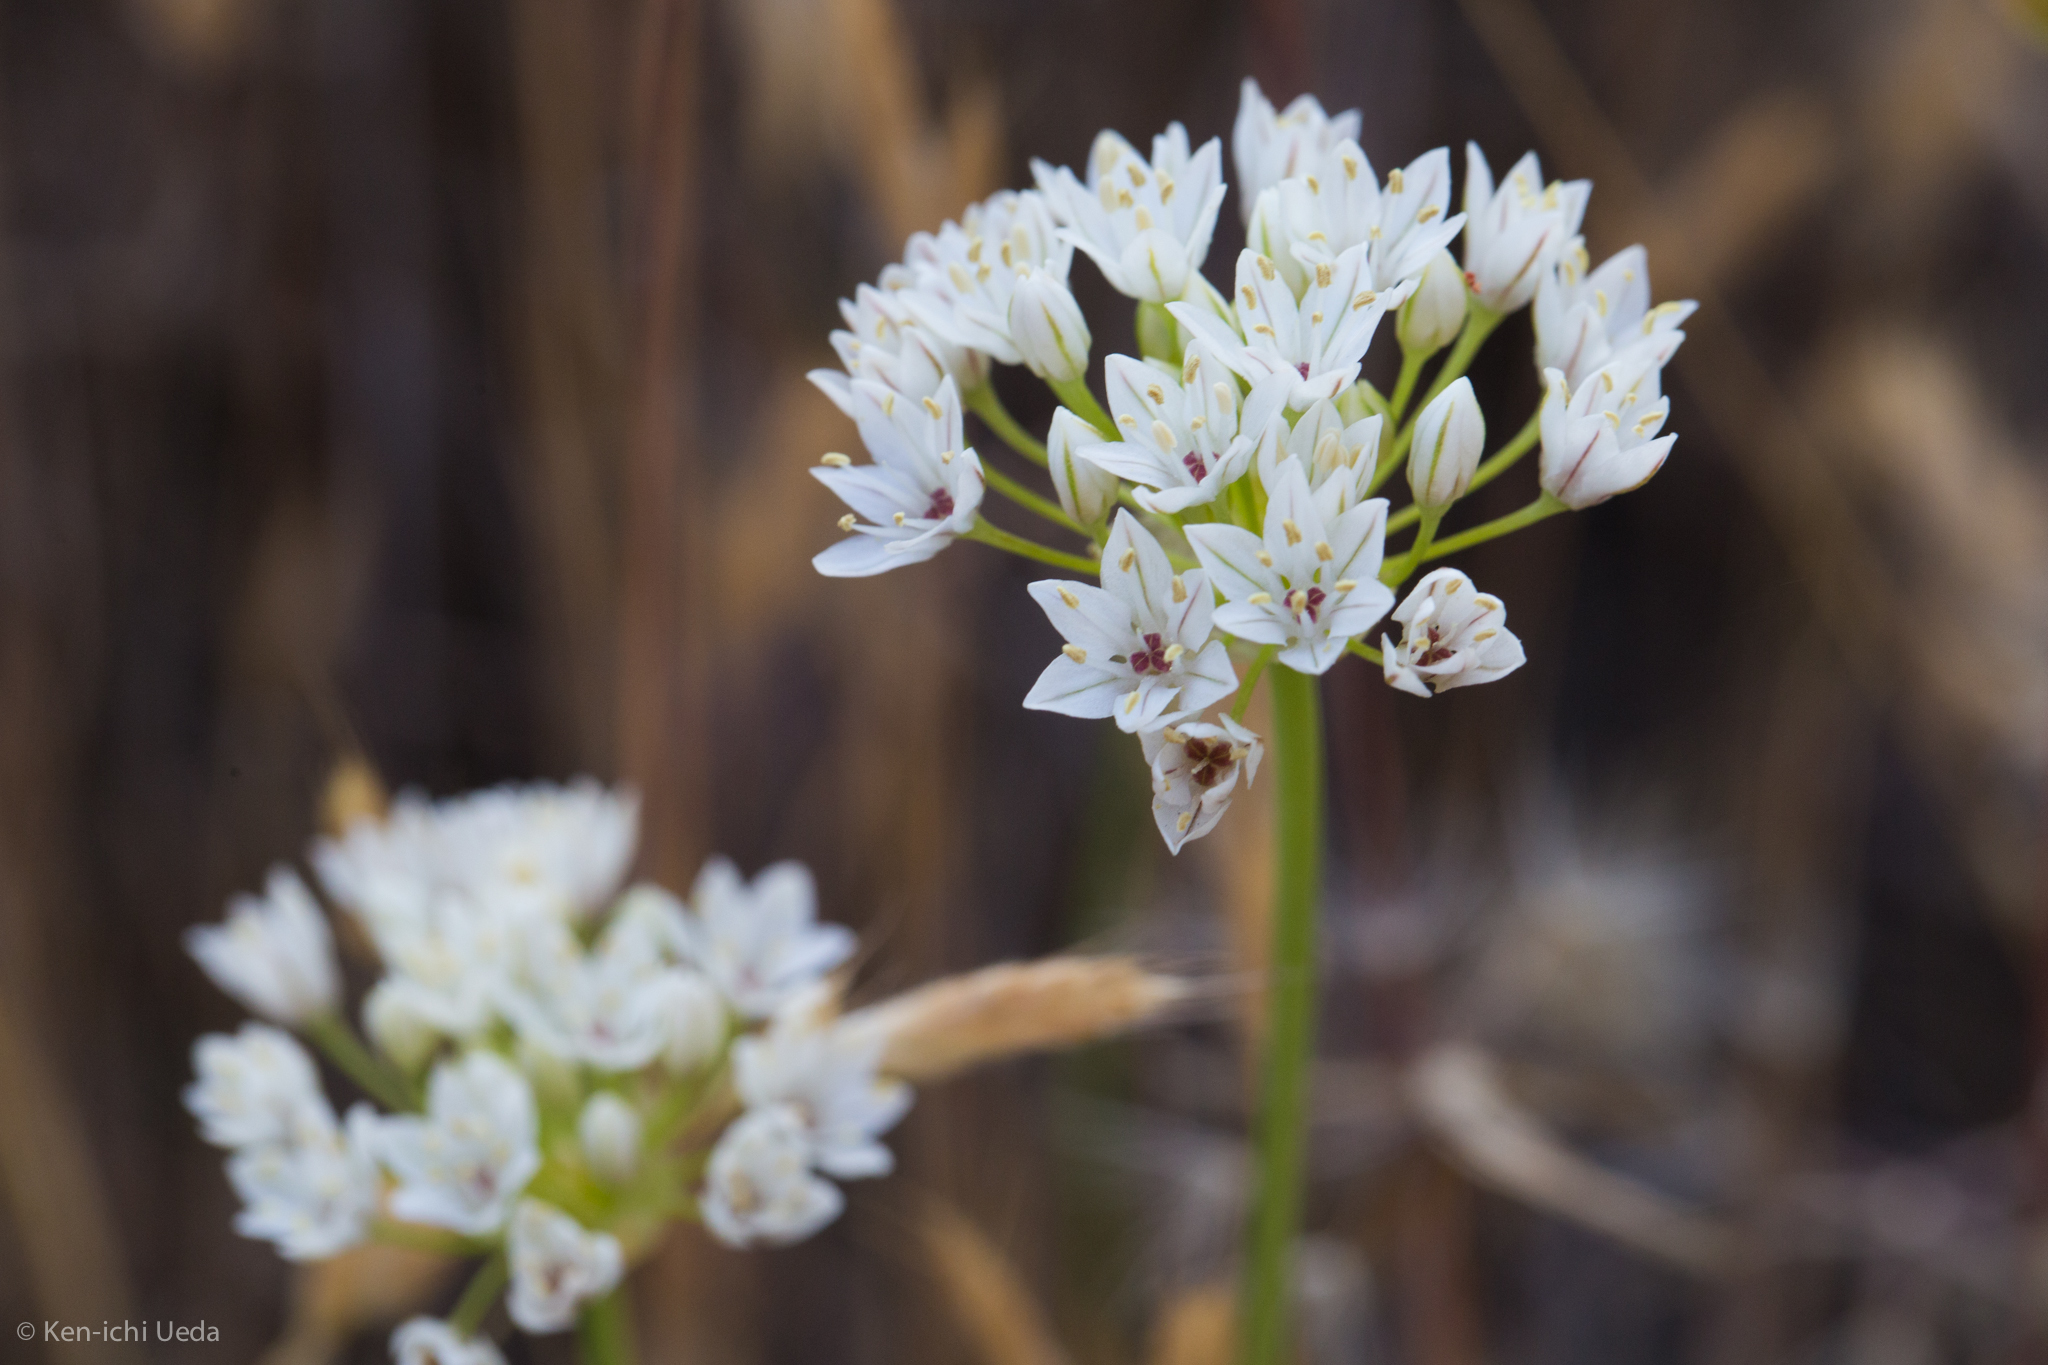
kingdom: Plantae
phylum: Tracheophyta
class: Liliopsida
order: Asparagales
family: Amaryllidaceae
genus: Allium
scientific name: Allium lacunosum
